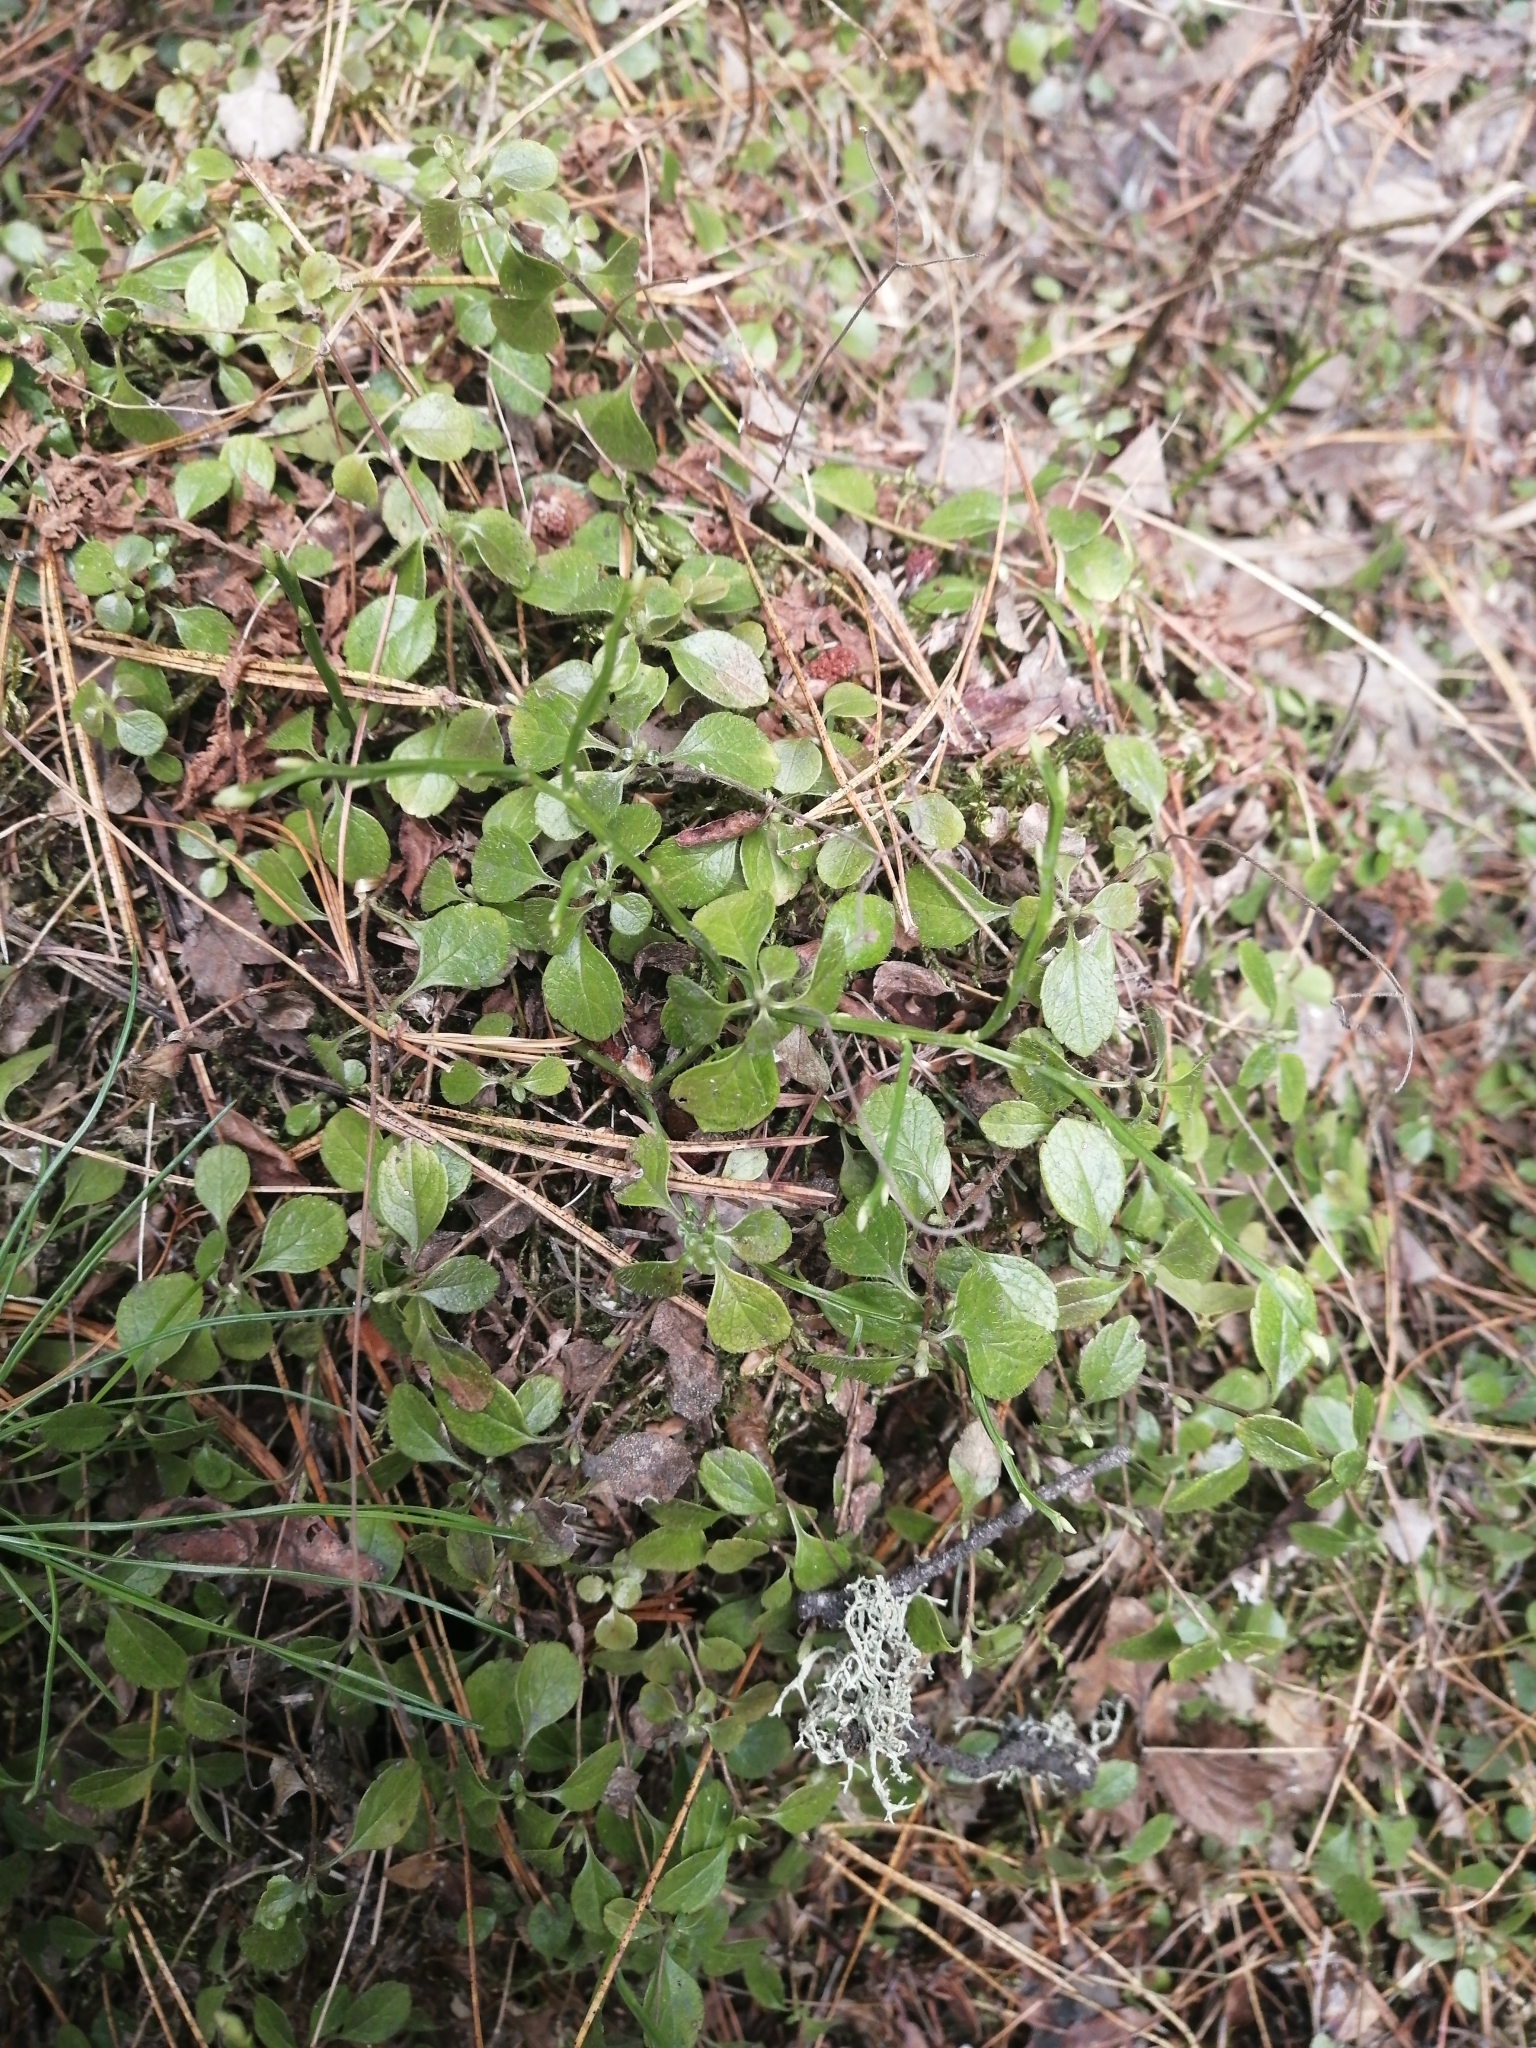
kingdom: Plantae
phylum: Tracheophyta
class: Magnoliopsida
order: Dipsacales
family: Caprifoliaceae
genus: Linnaea
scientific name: Linnaea borealis
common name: Twinflower
